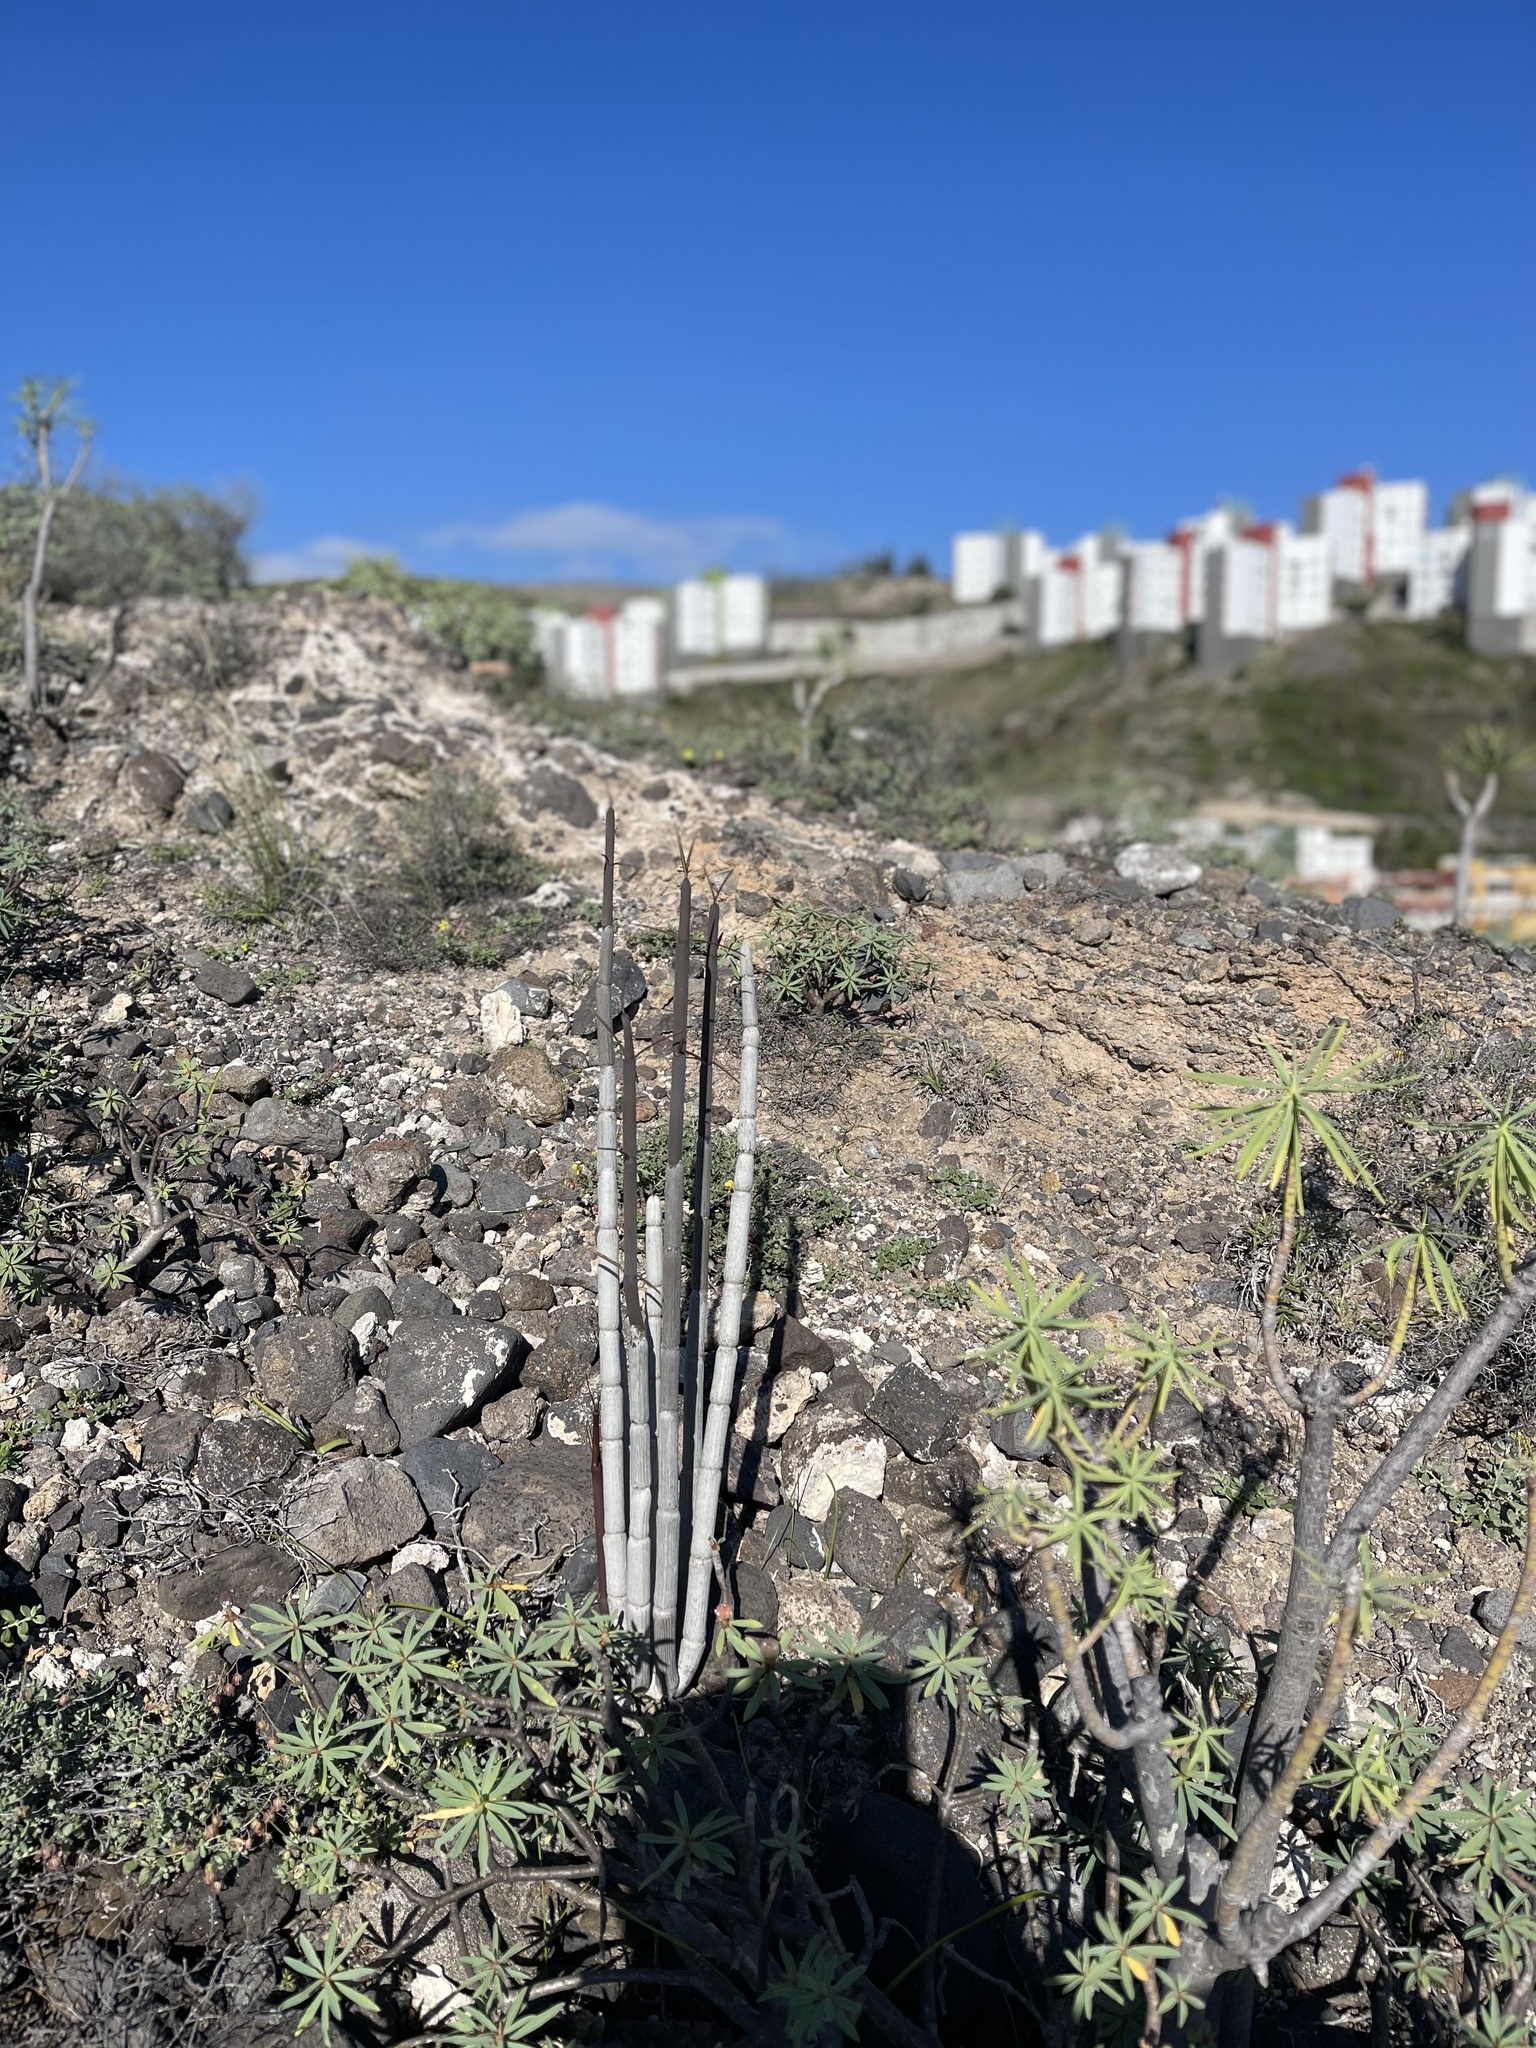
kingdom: Plantae
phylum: Tracheophyta
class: Magnoliopsida
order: Gentianales
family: Apocynaceae
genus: Ceropegia
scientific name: Ceropegia fusca
